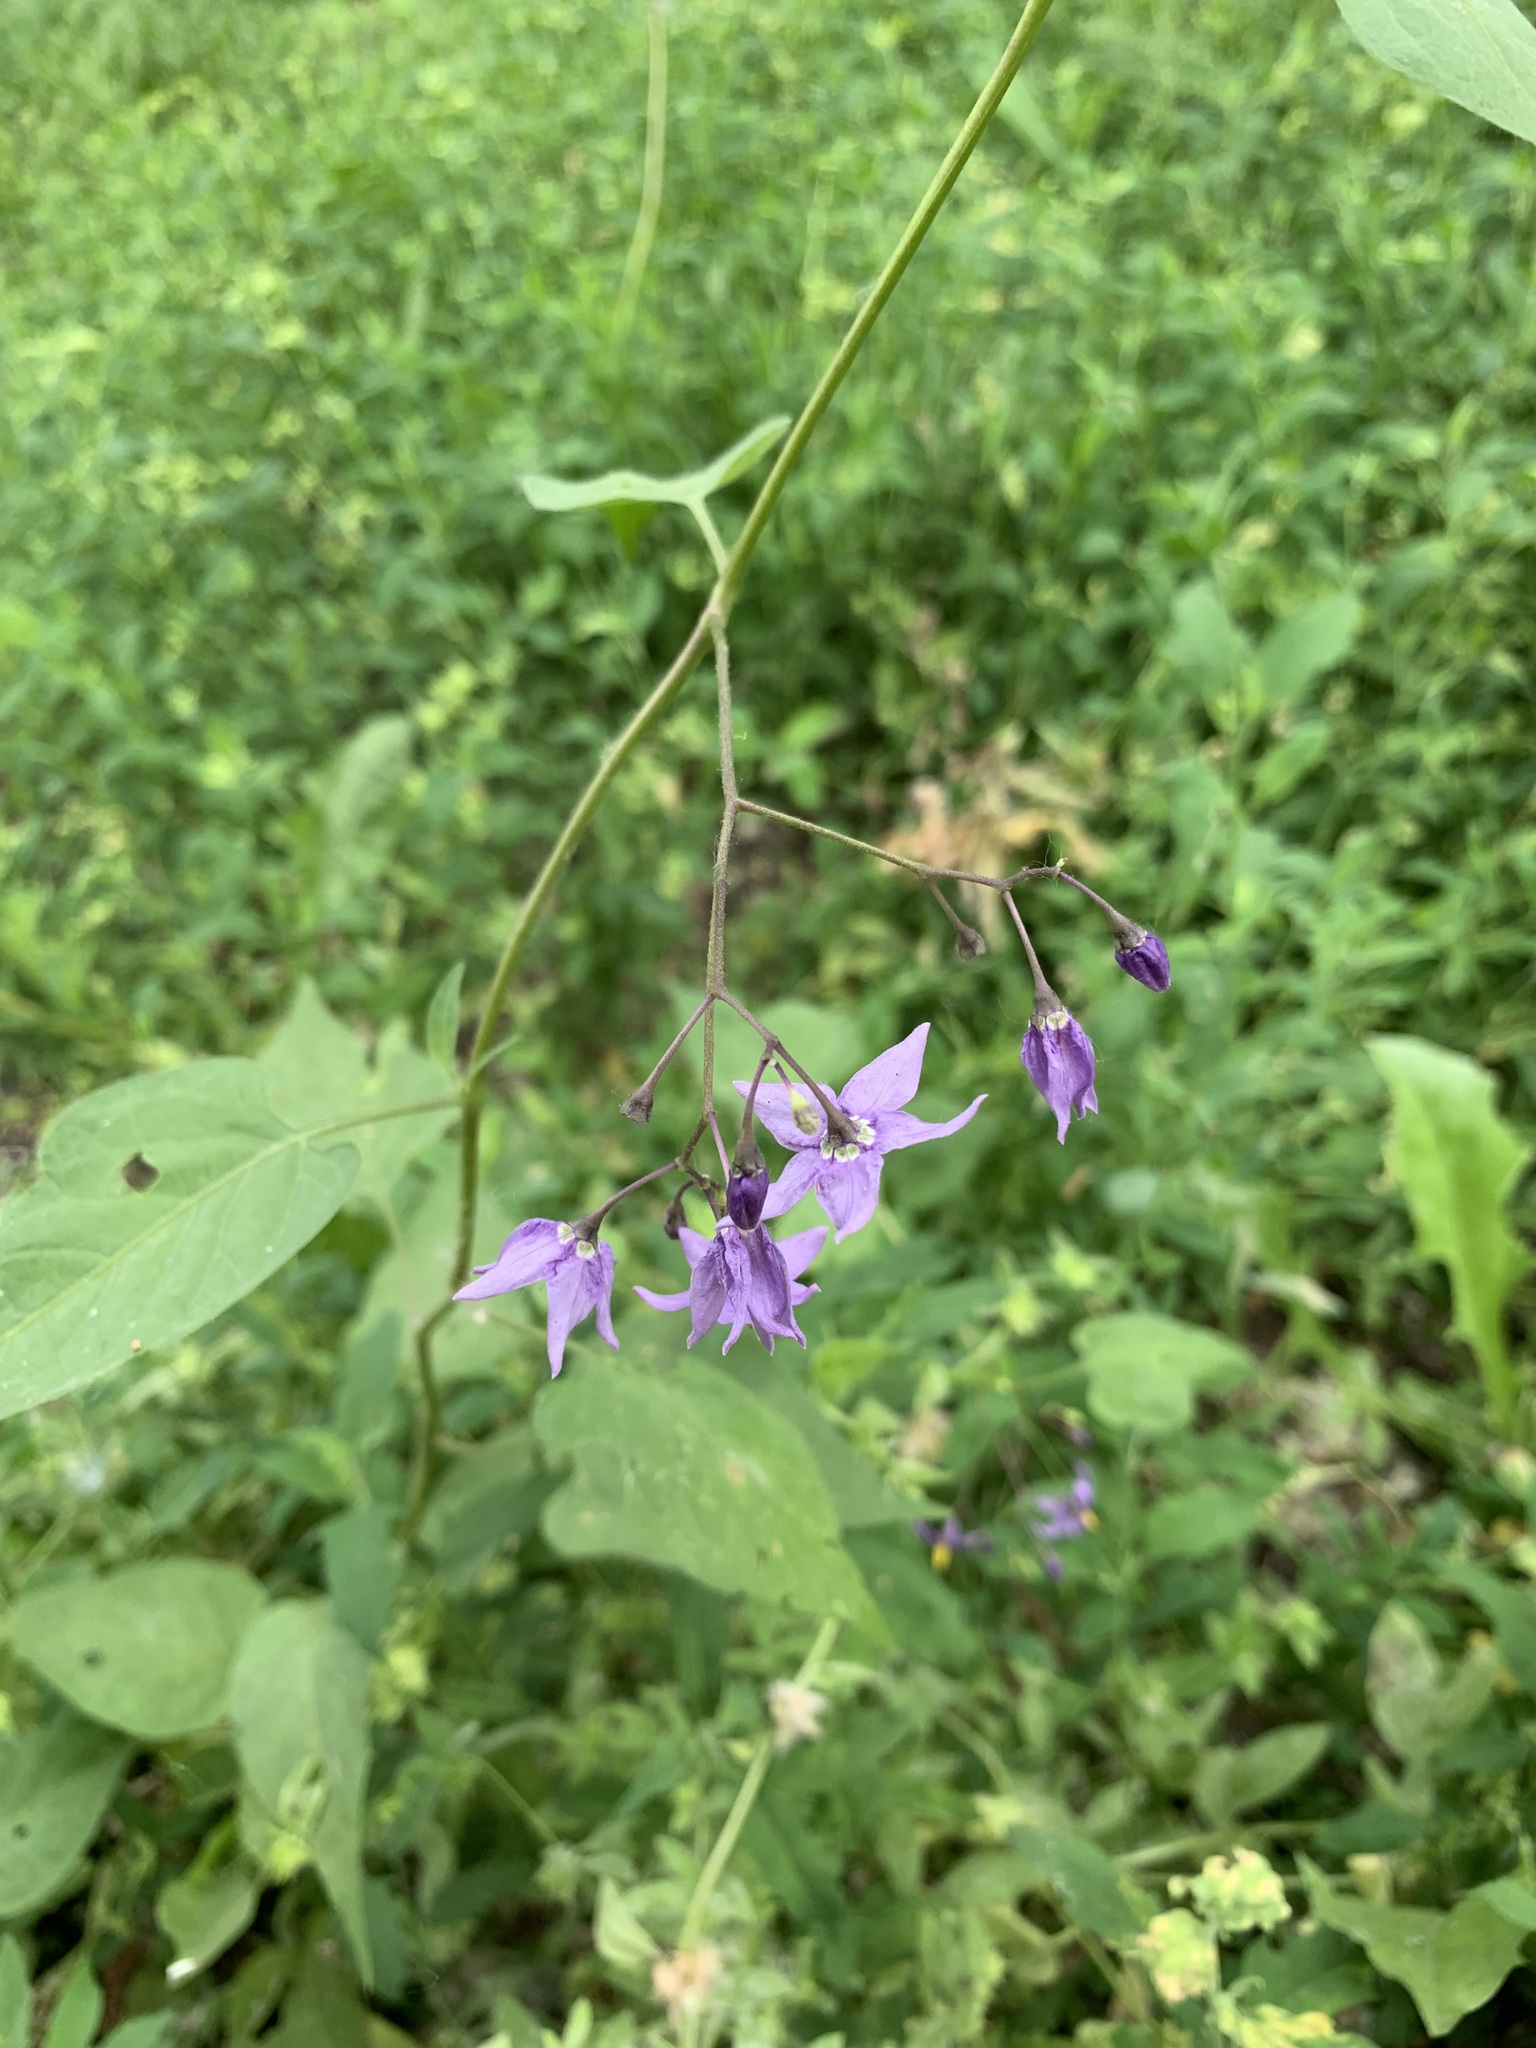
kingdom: Plantae
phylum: Tracheophyta
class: Magnoliopsida
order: Solanales
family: Solanaceae
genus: Solanum
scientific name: Solanum dulcamara
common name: Climbing nightshade
